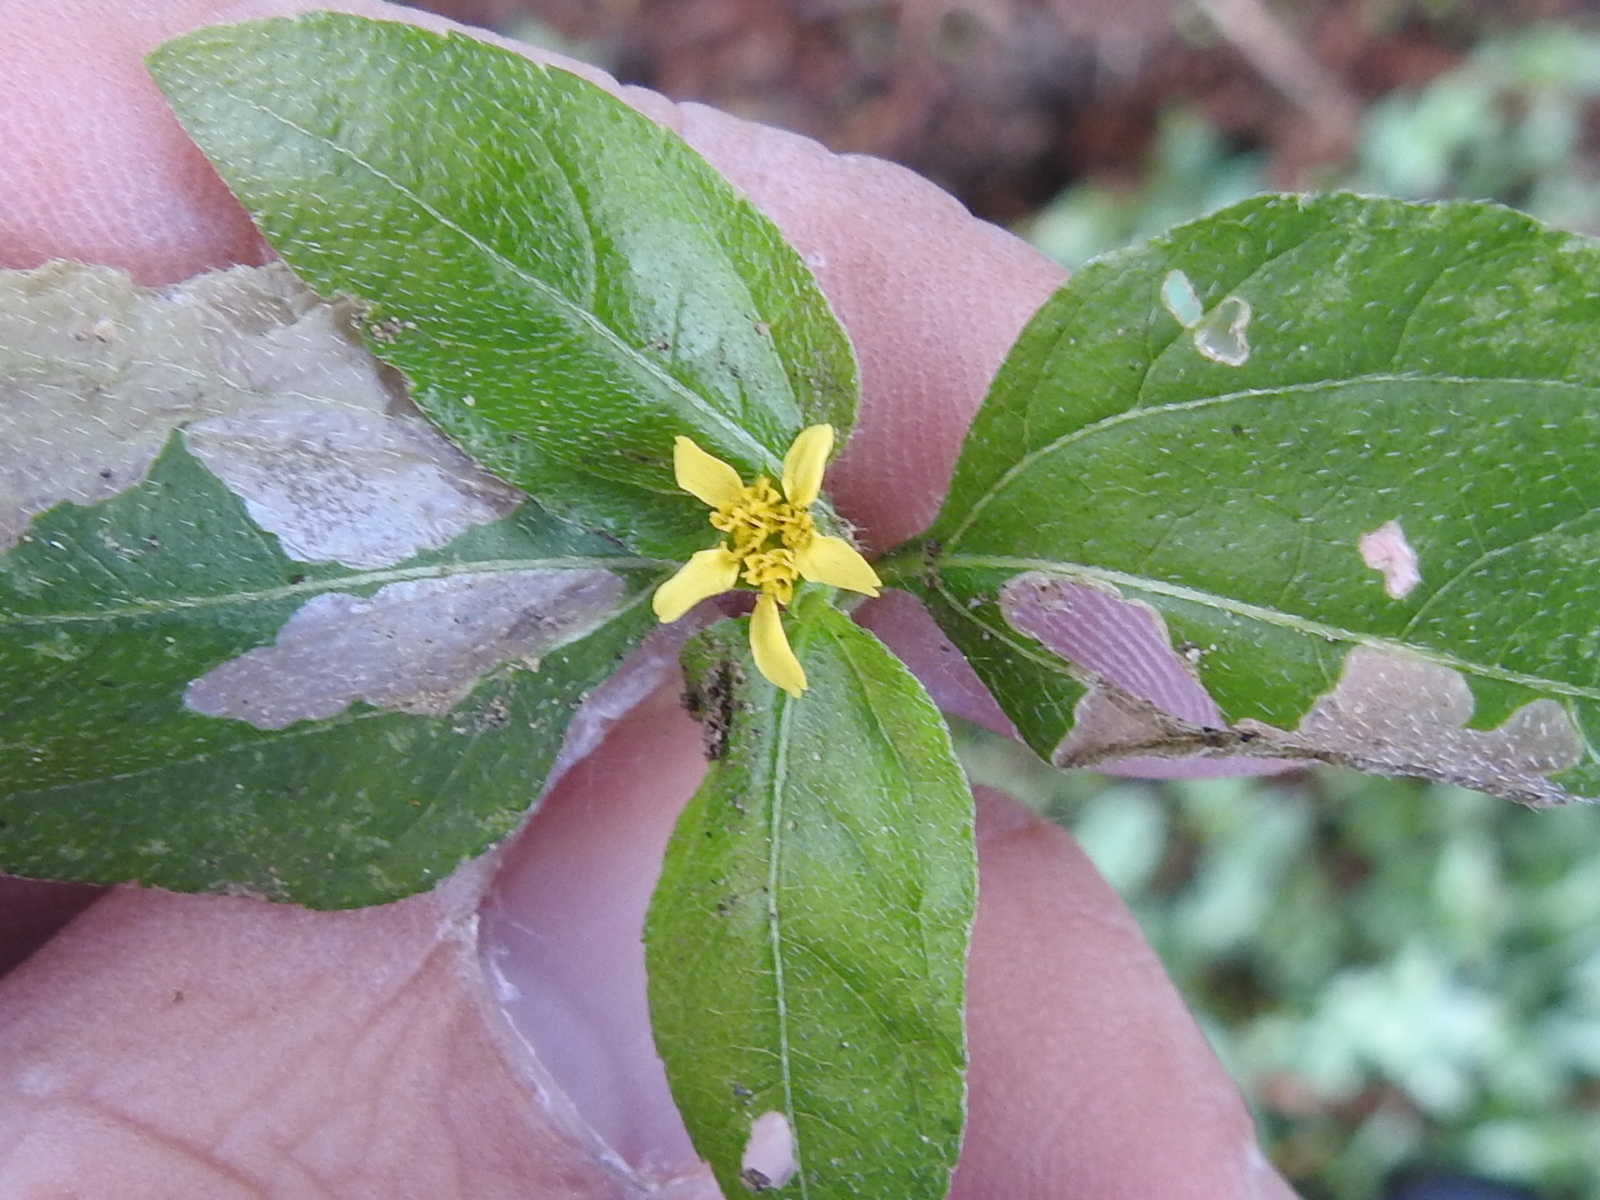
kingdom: Plantae
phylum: Tracheophyta
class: Magnoliopsida
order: Asterales
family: Asteraceae
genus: Calyptocarpus
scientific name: Calyptocarpus vialis
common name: Straggler daisy
